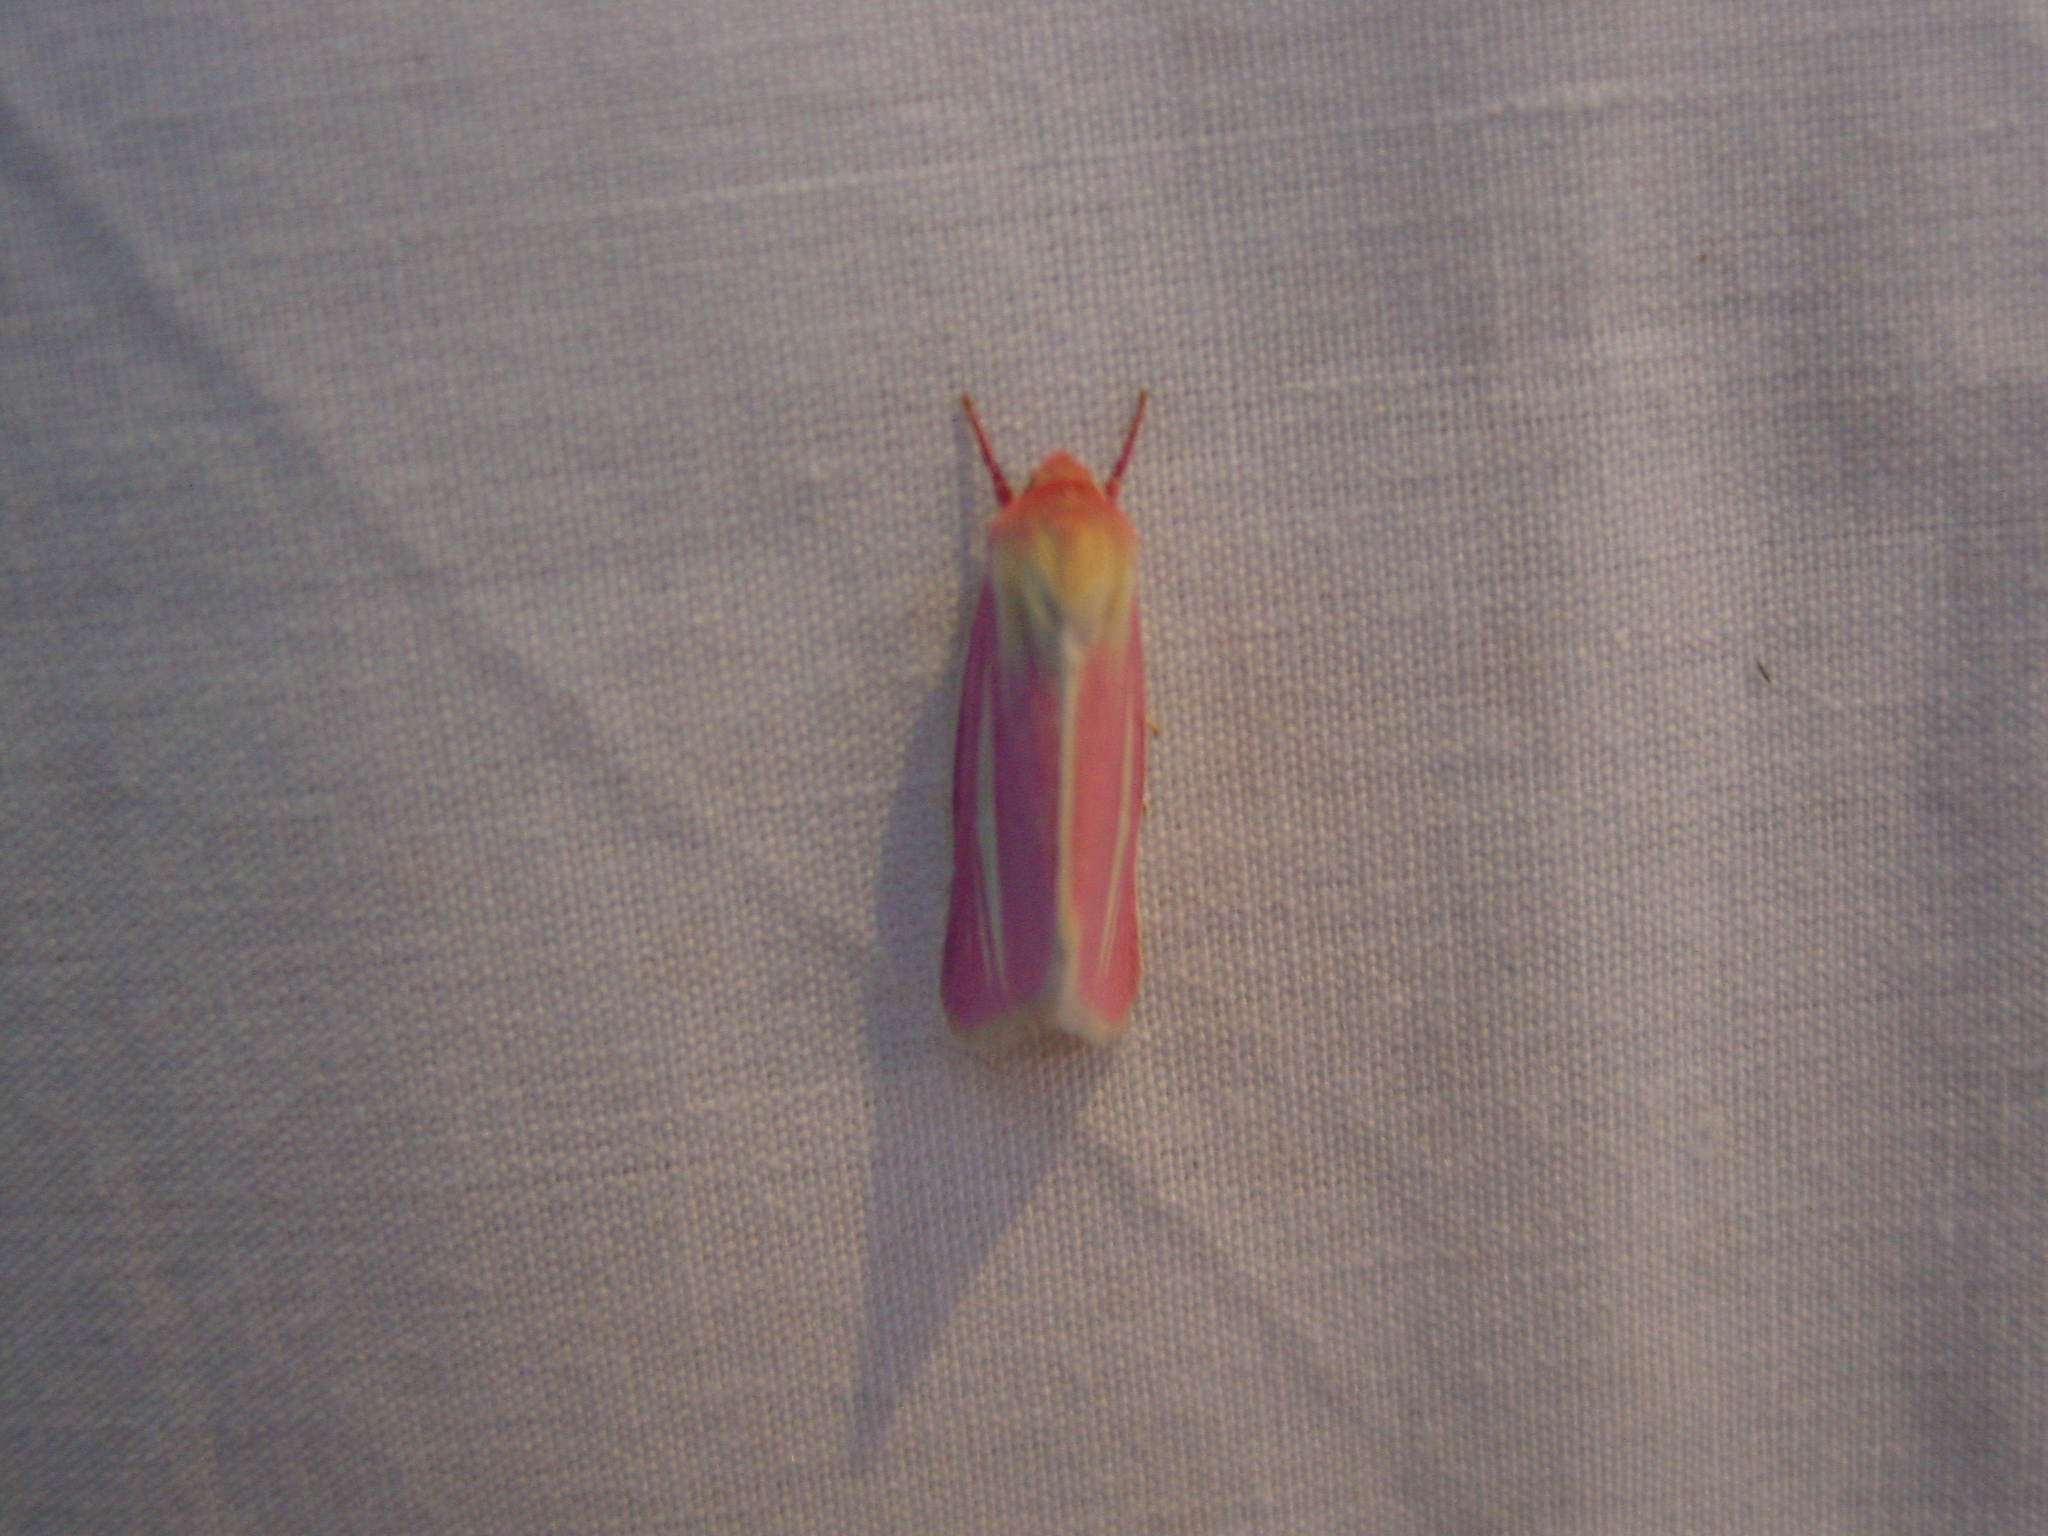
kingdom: Animalia
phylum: Arthropoda
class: Insecta
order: Lepidoptera
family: Noctuidae
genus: Heliocheilus
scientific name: Heliocheilus julia
